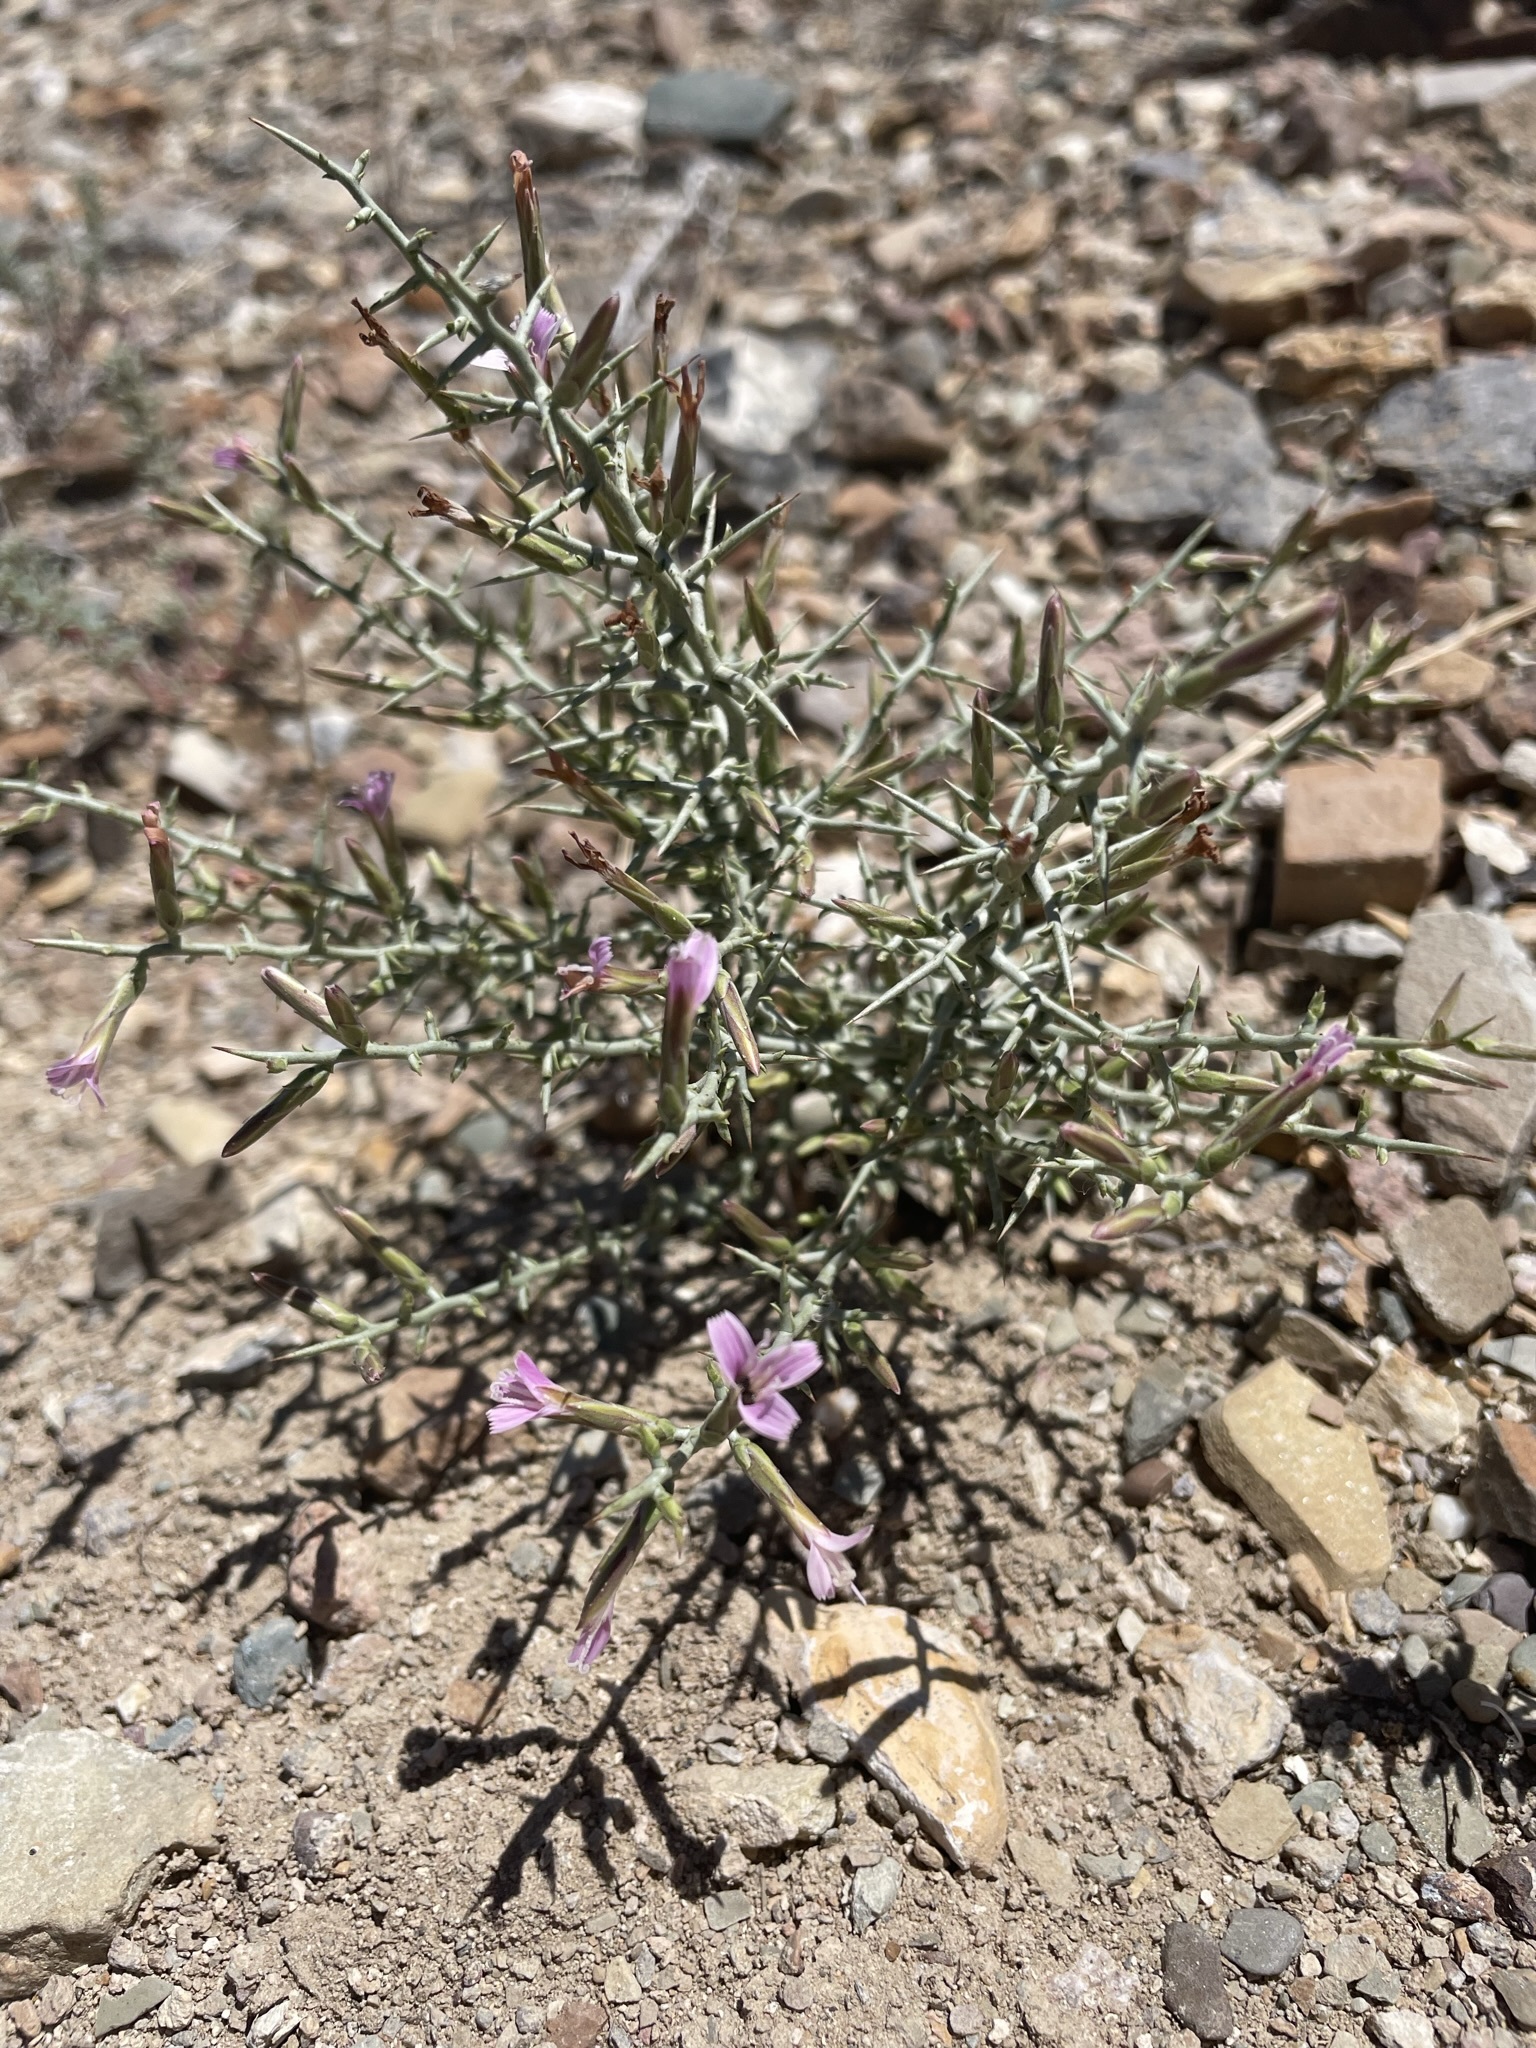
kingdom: Plantae
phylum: Tracheophyta
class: Magnoliopsida
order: Asterales
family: Asteraceae
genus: Pleiacanthus
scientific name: Pleiacanthus spinosus
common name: Thorny skeleton-weed
